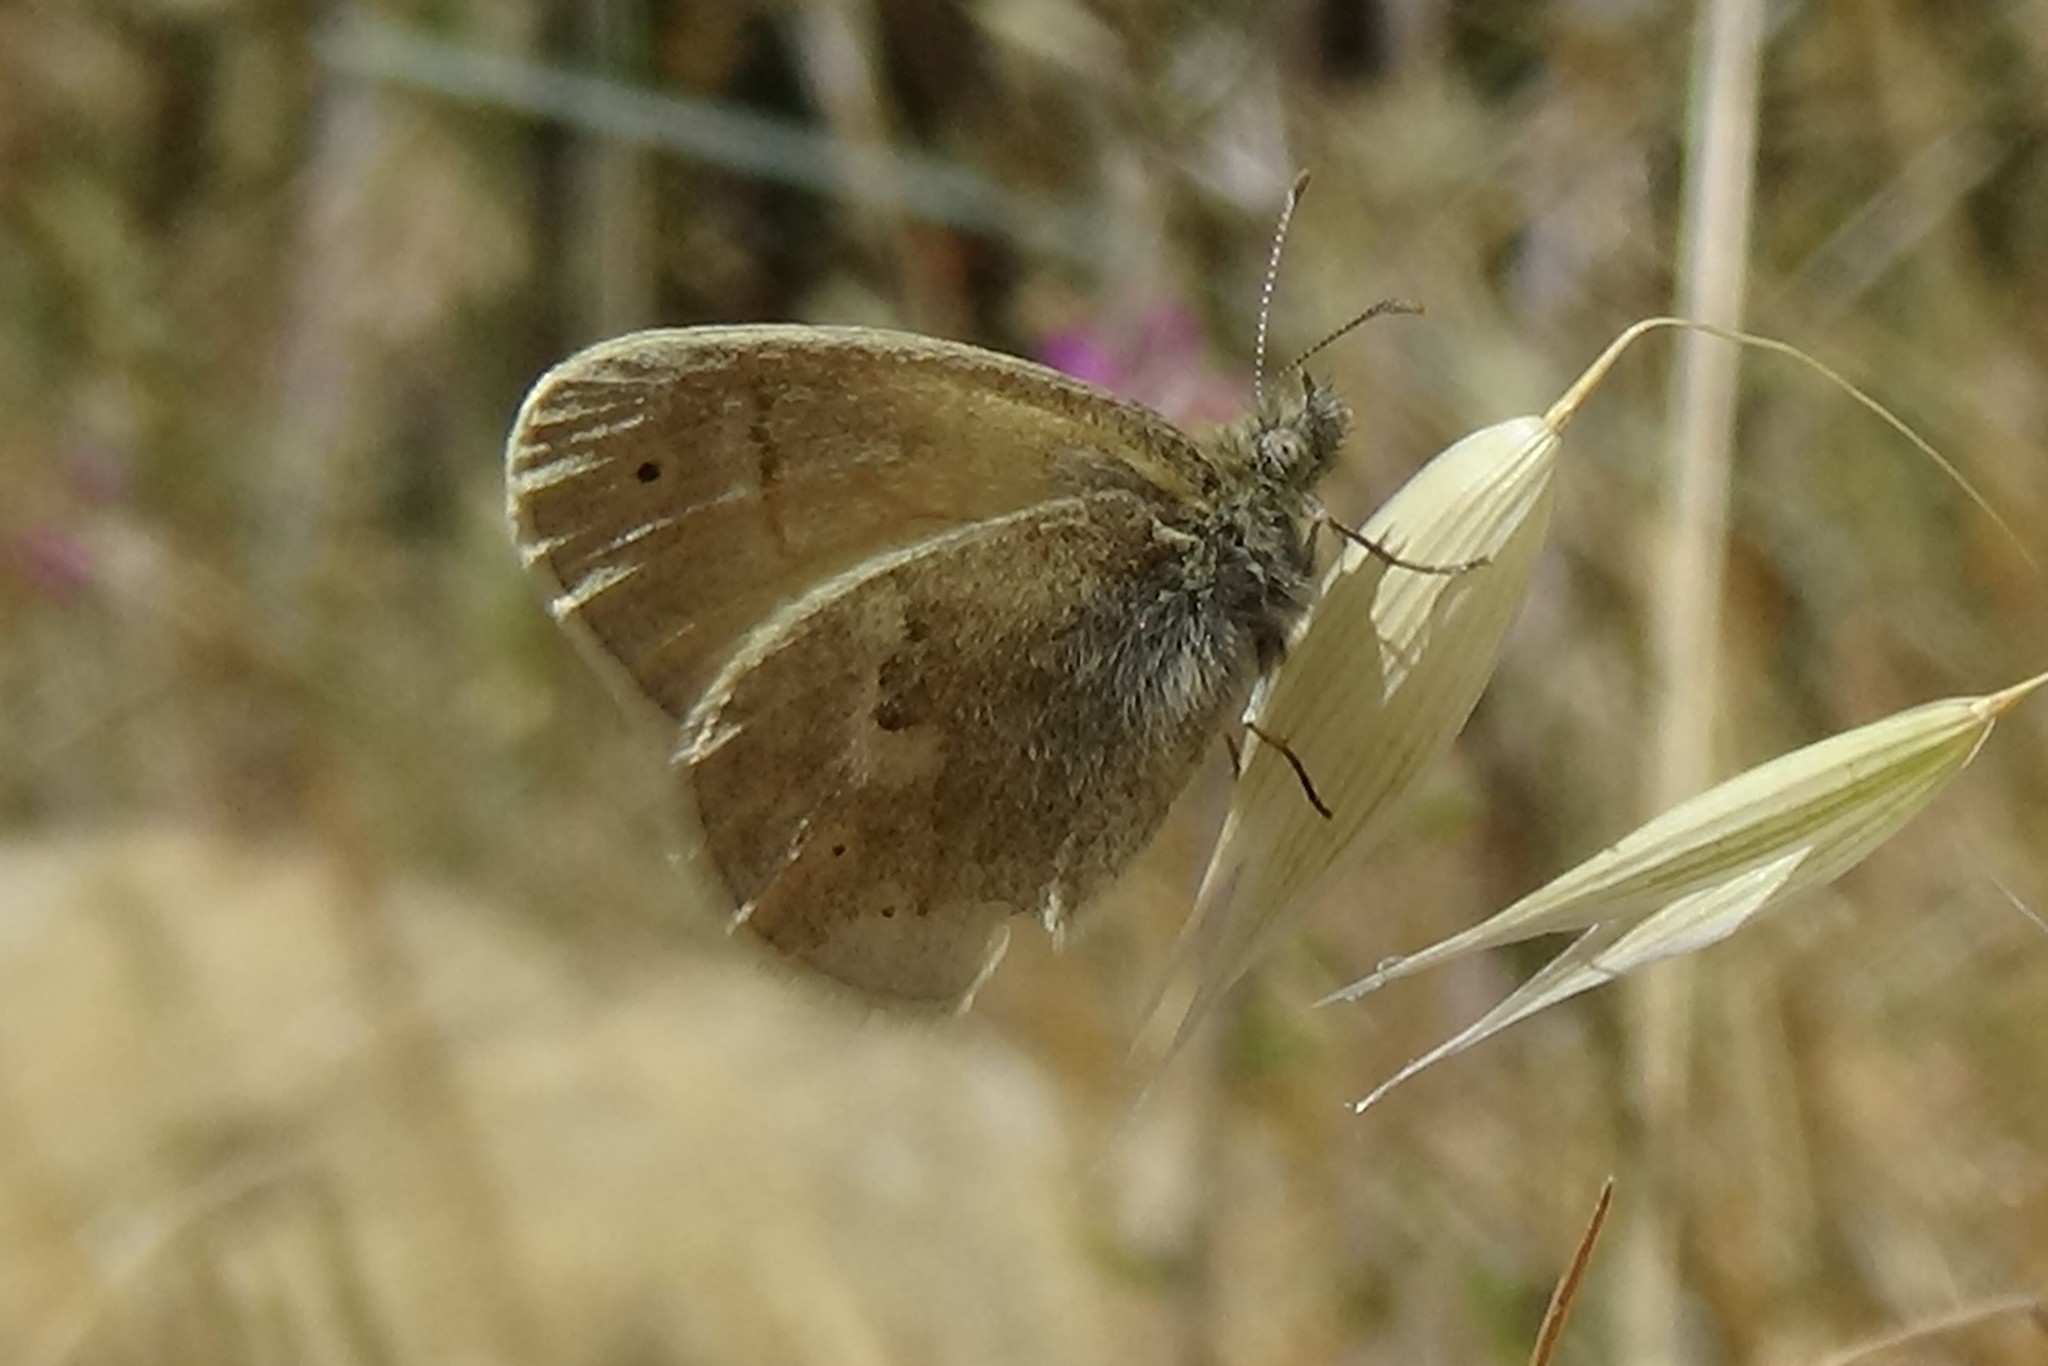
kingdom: Animalia
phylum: Arthropoda
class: Insecta
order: Lepidoptera
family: Nymphalidae
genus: Coenonympha
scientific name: Coenonympha california
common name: Common ringlet
